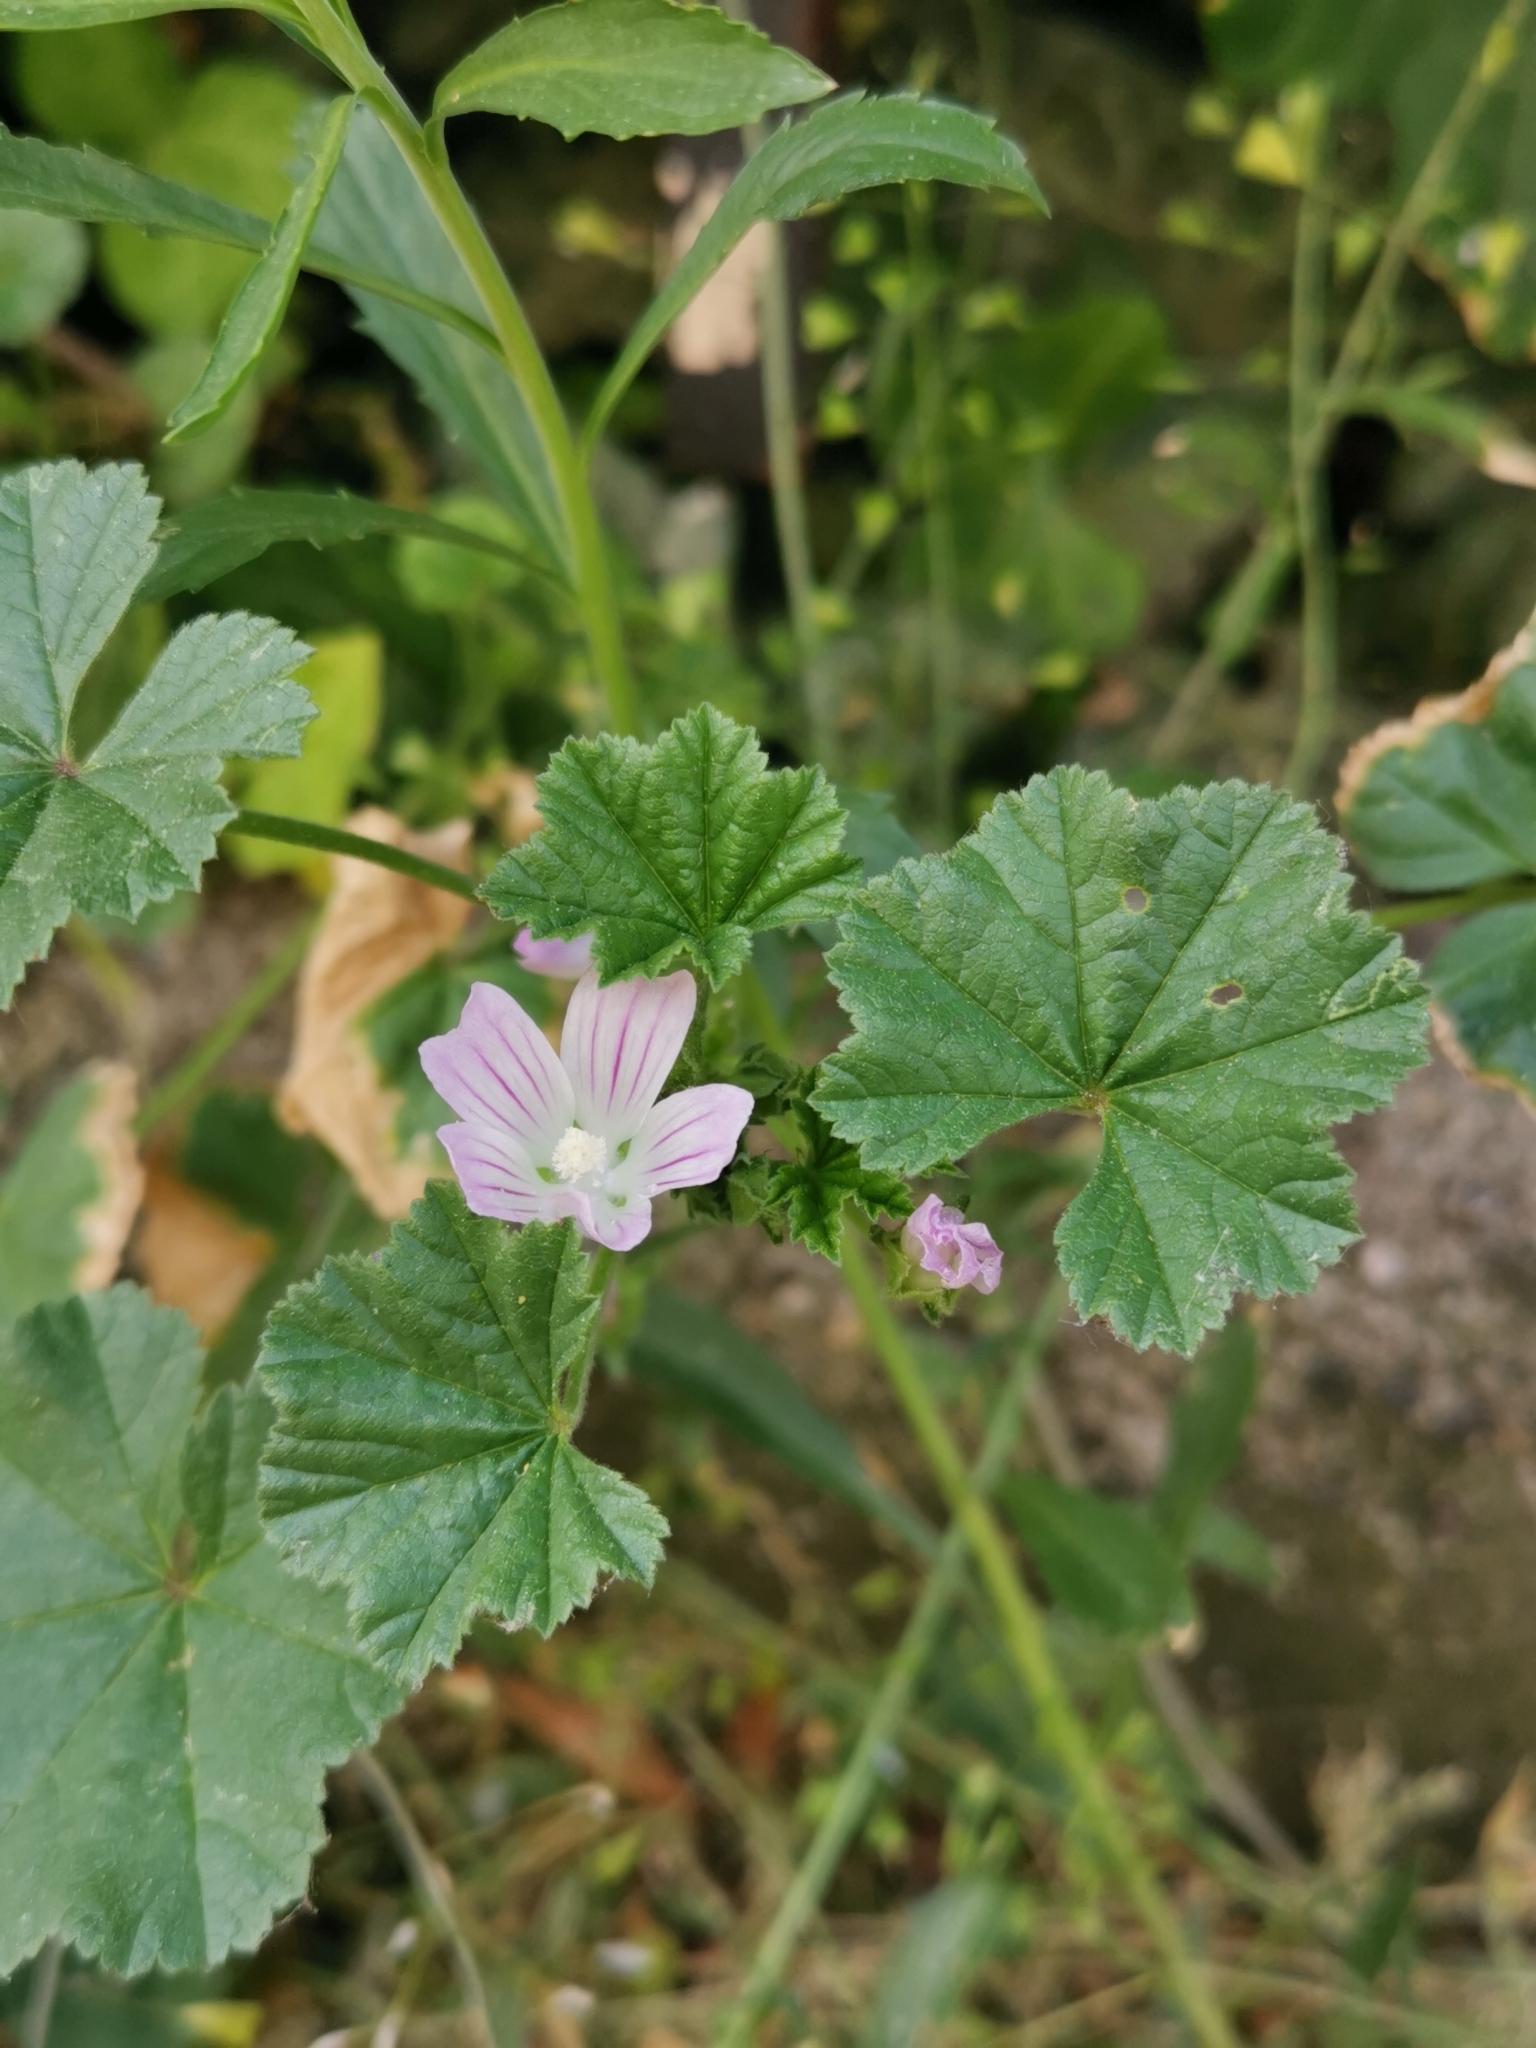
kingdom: Plantae
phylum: Tracheophyta
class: Magnoliopsida
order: Malvales
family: Malvaceae
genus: Malva
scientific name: Malva neglecta
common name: Common mallow
